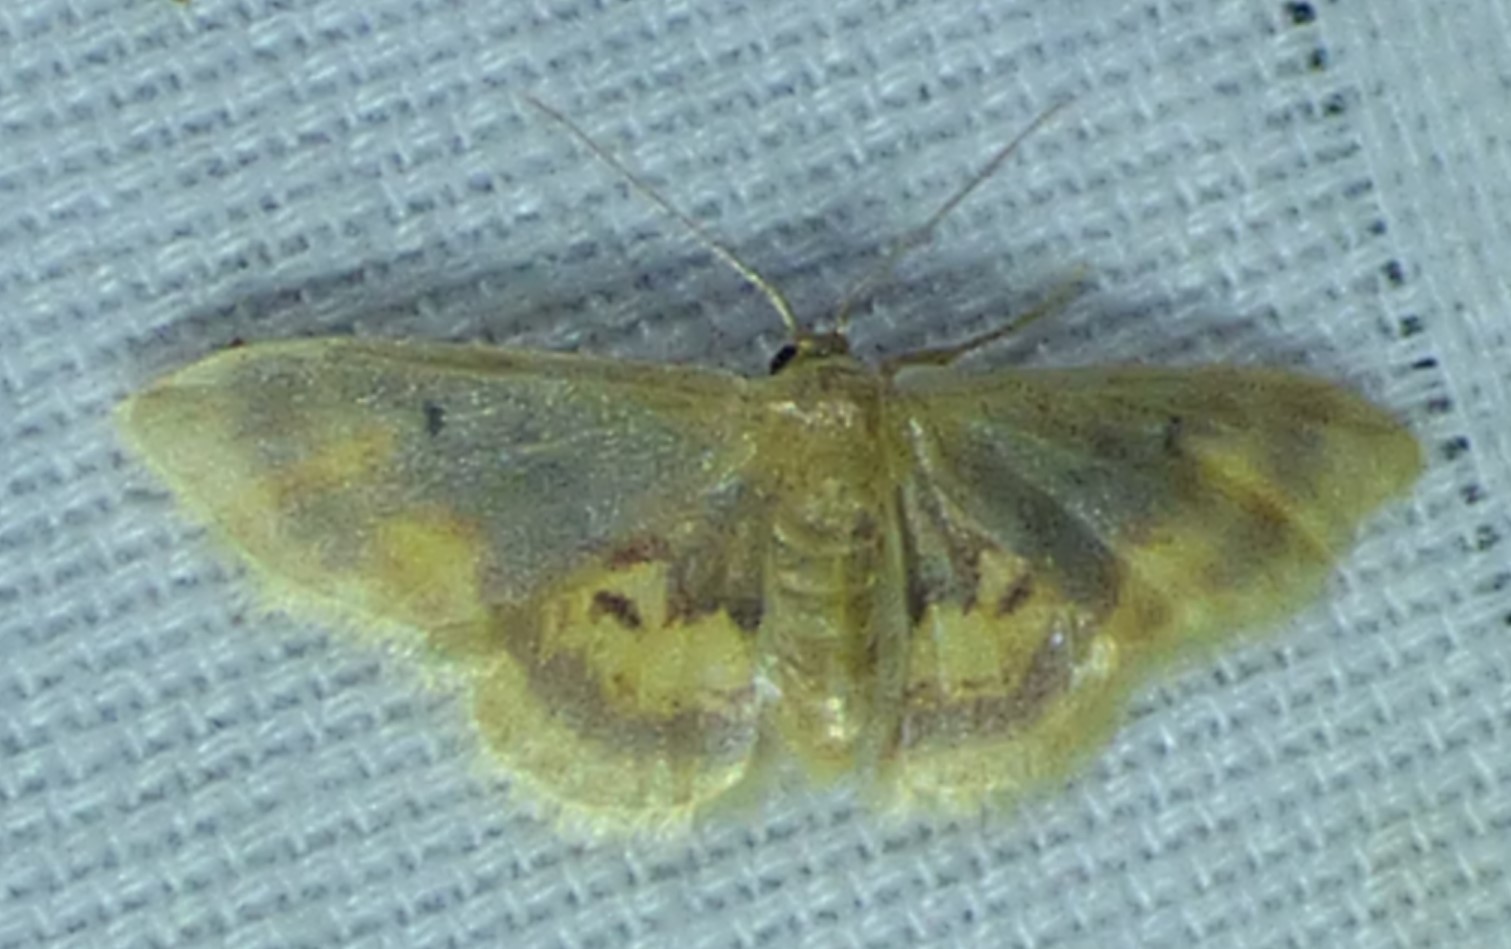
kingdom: Animalia
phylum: Arthropoda
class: Insecta
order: Lepidoptera
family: Geometridae
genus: Idaea
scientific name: Idaea scintillularia
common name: Diminutive wave
